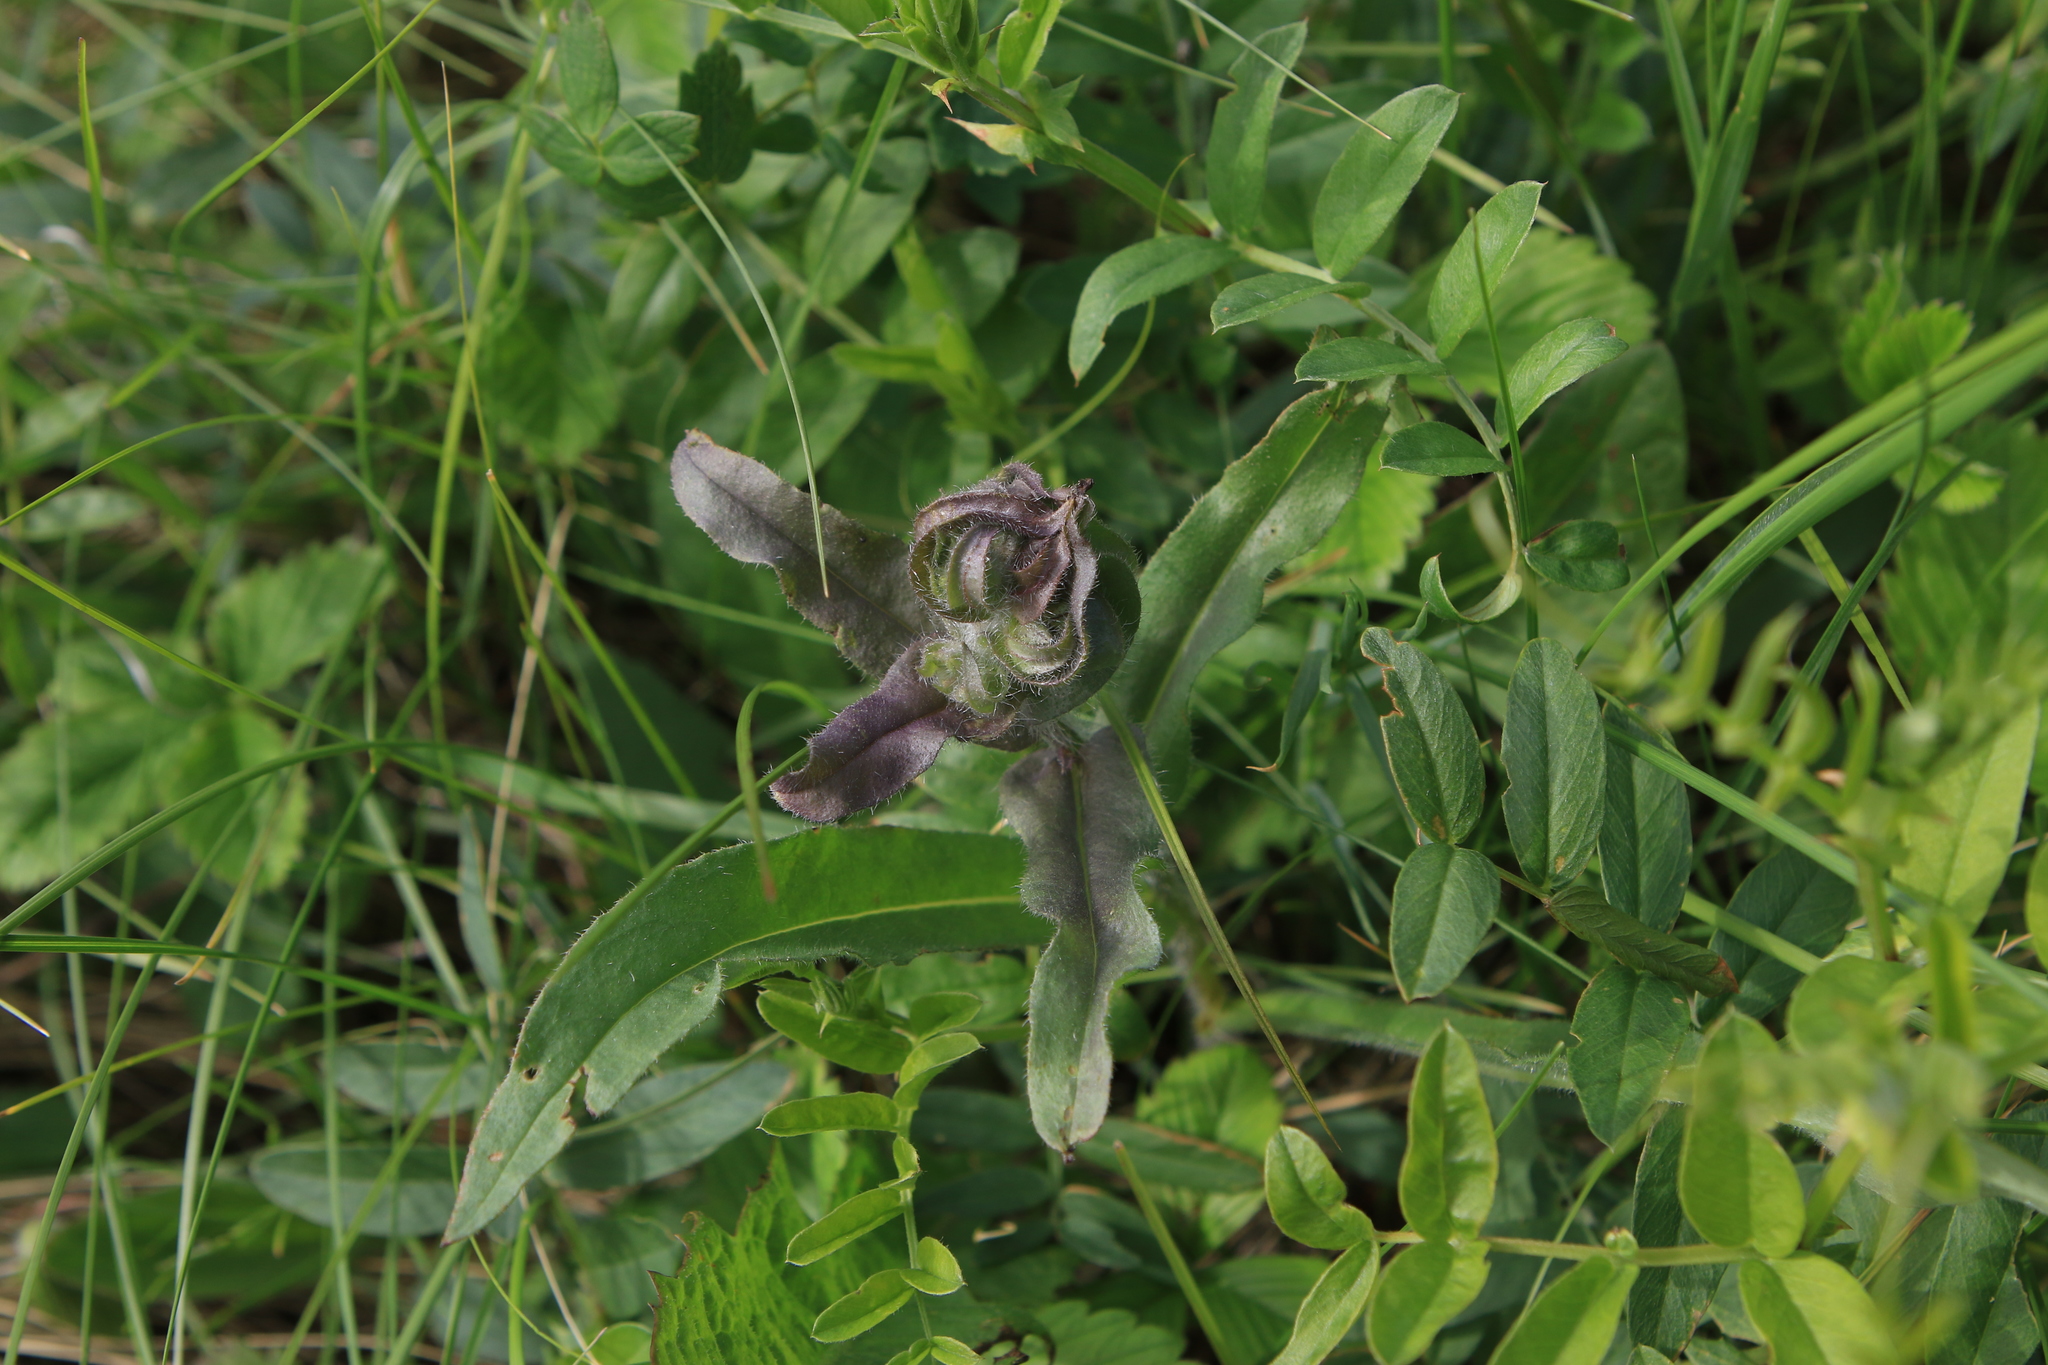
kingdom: Plantae
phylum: Tracheophyta
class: Magnoliopsida
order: Boraginales
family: Boraginaceae
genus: Nonea
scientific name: Nonea pulla
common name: Brown nonea
